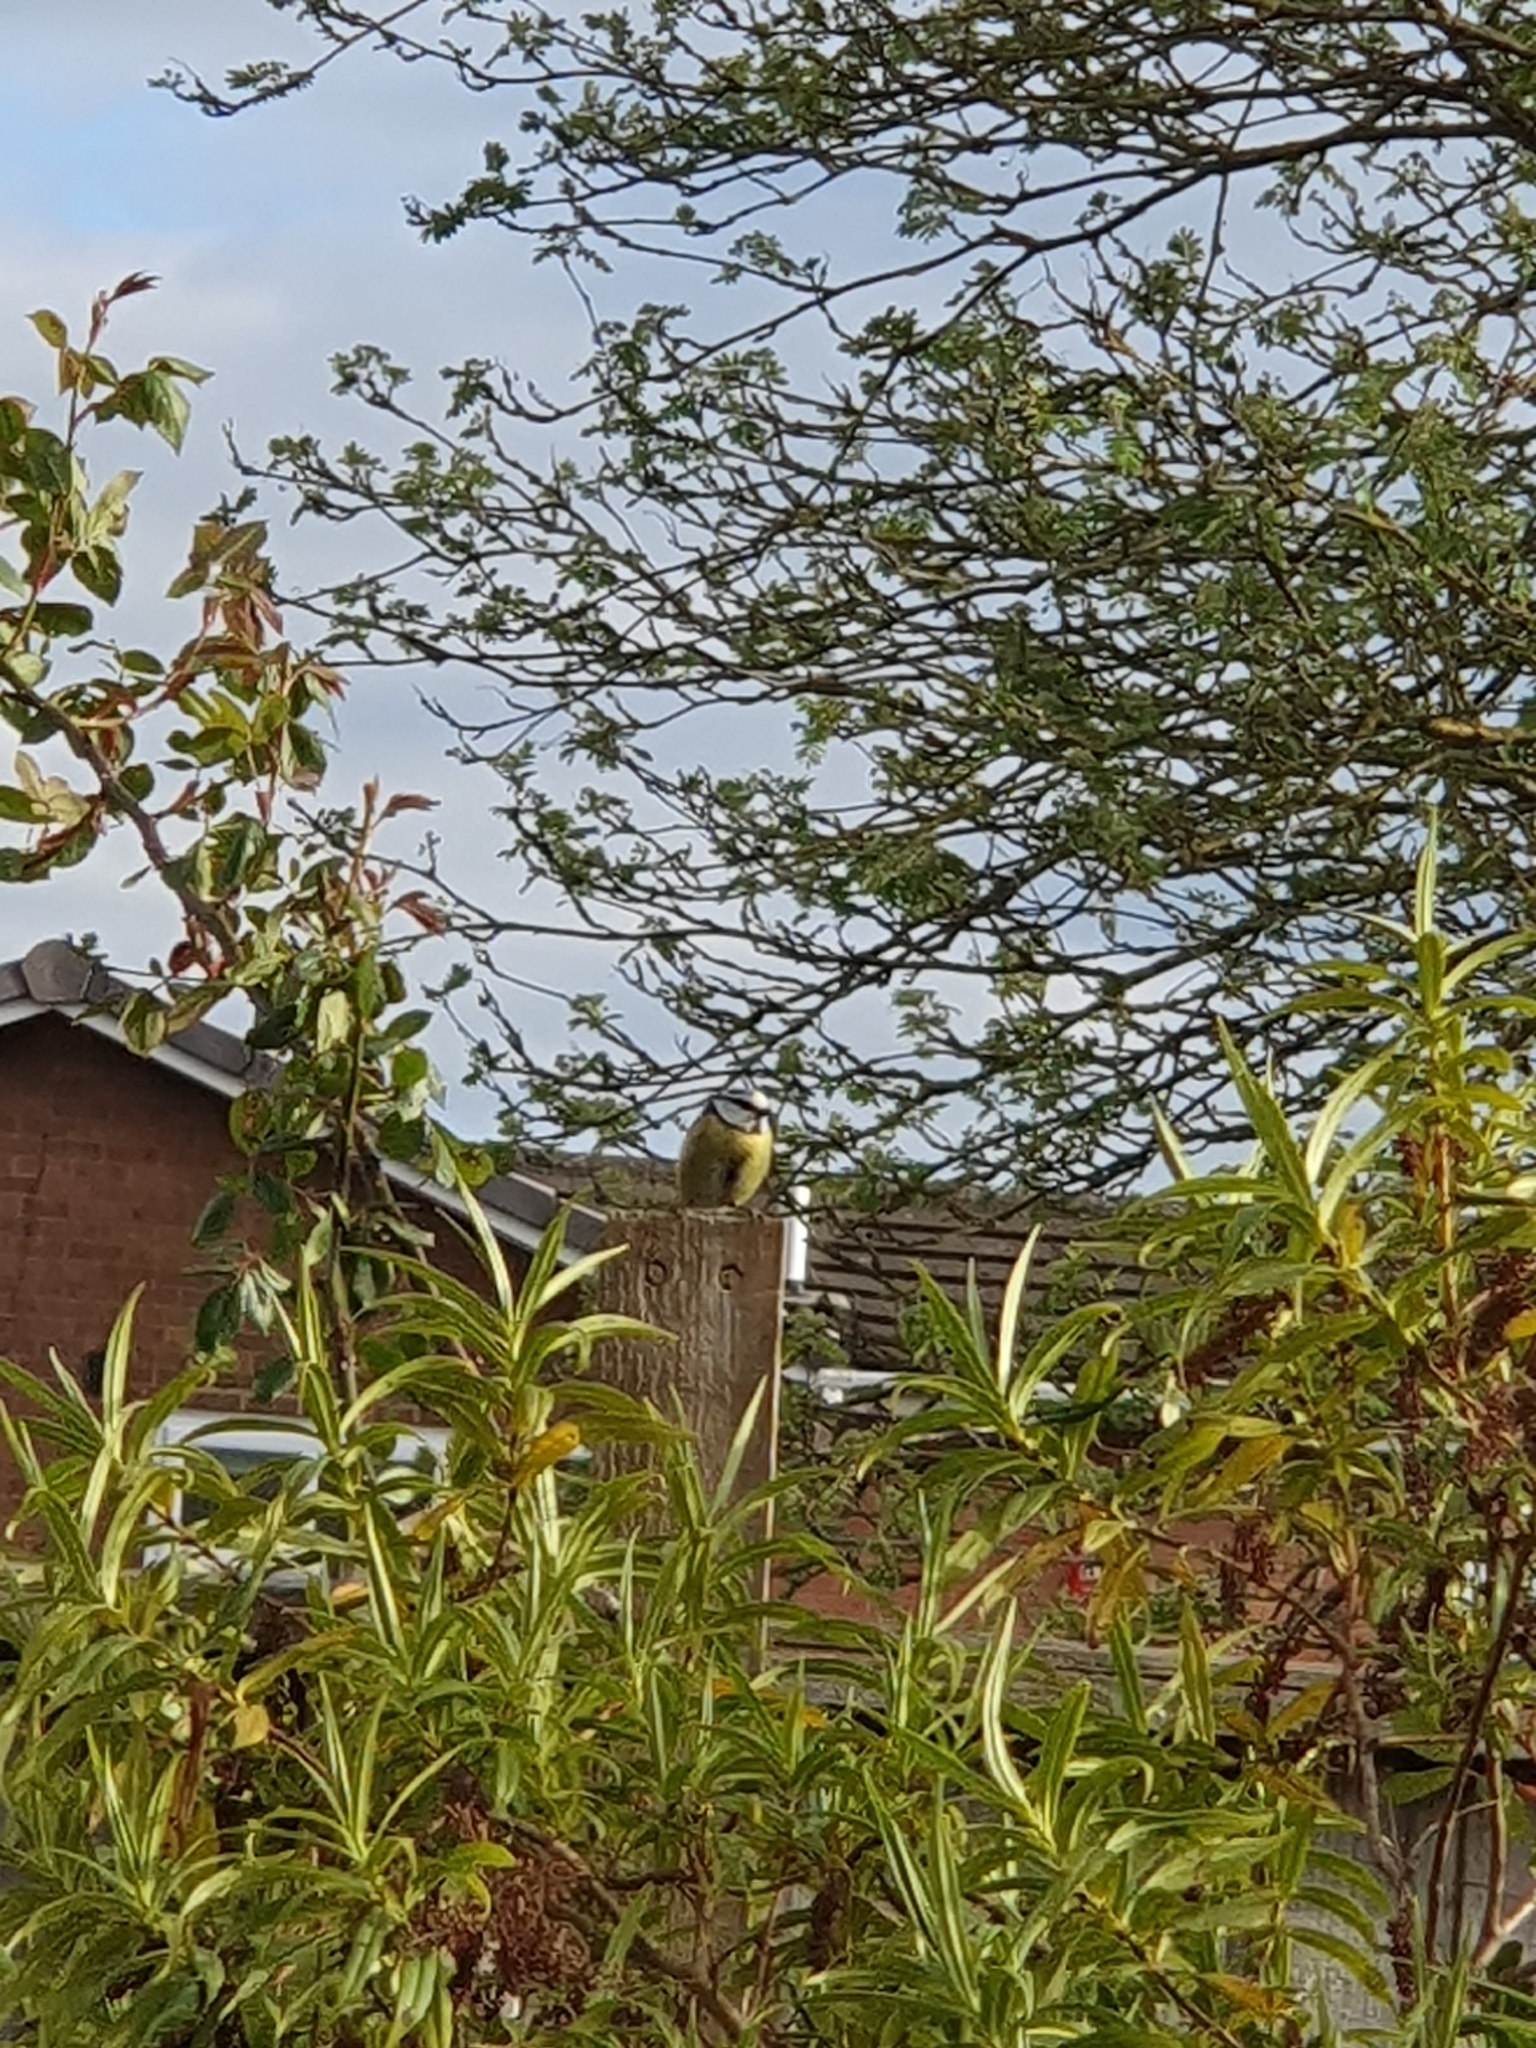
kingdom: Animalia
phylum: Chordata
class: Aves
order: Passeriformes
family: Paridae
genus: Cyanistes
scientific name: Cyanistes caeruleus
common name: Eurasian blue tit
